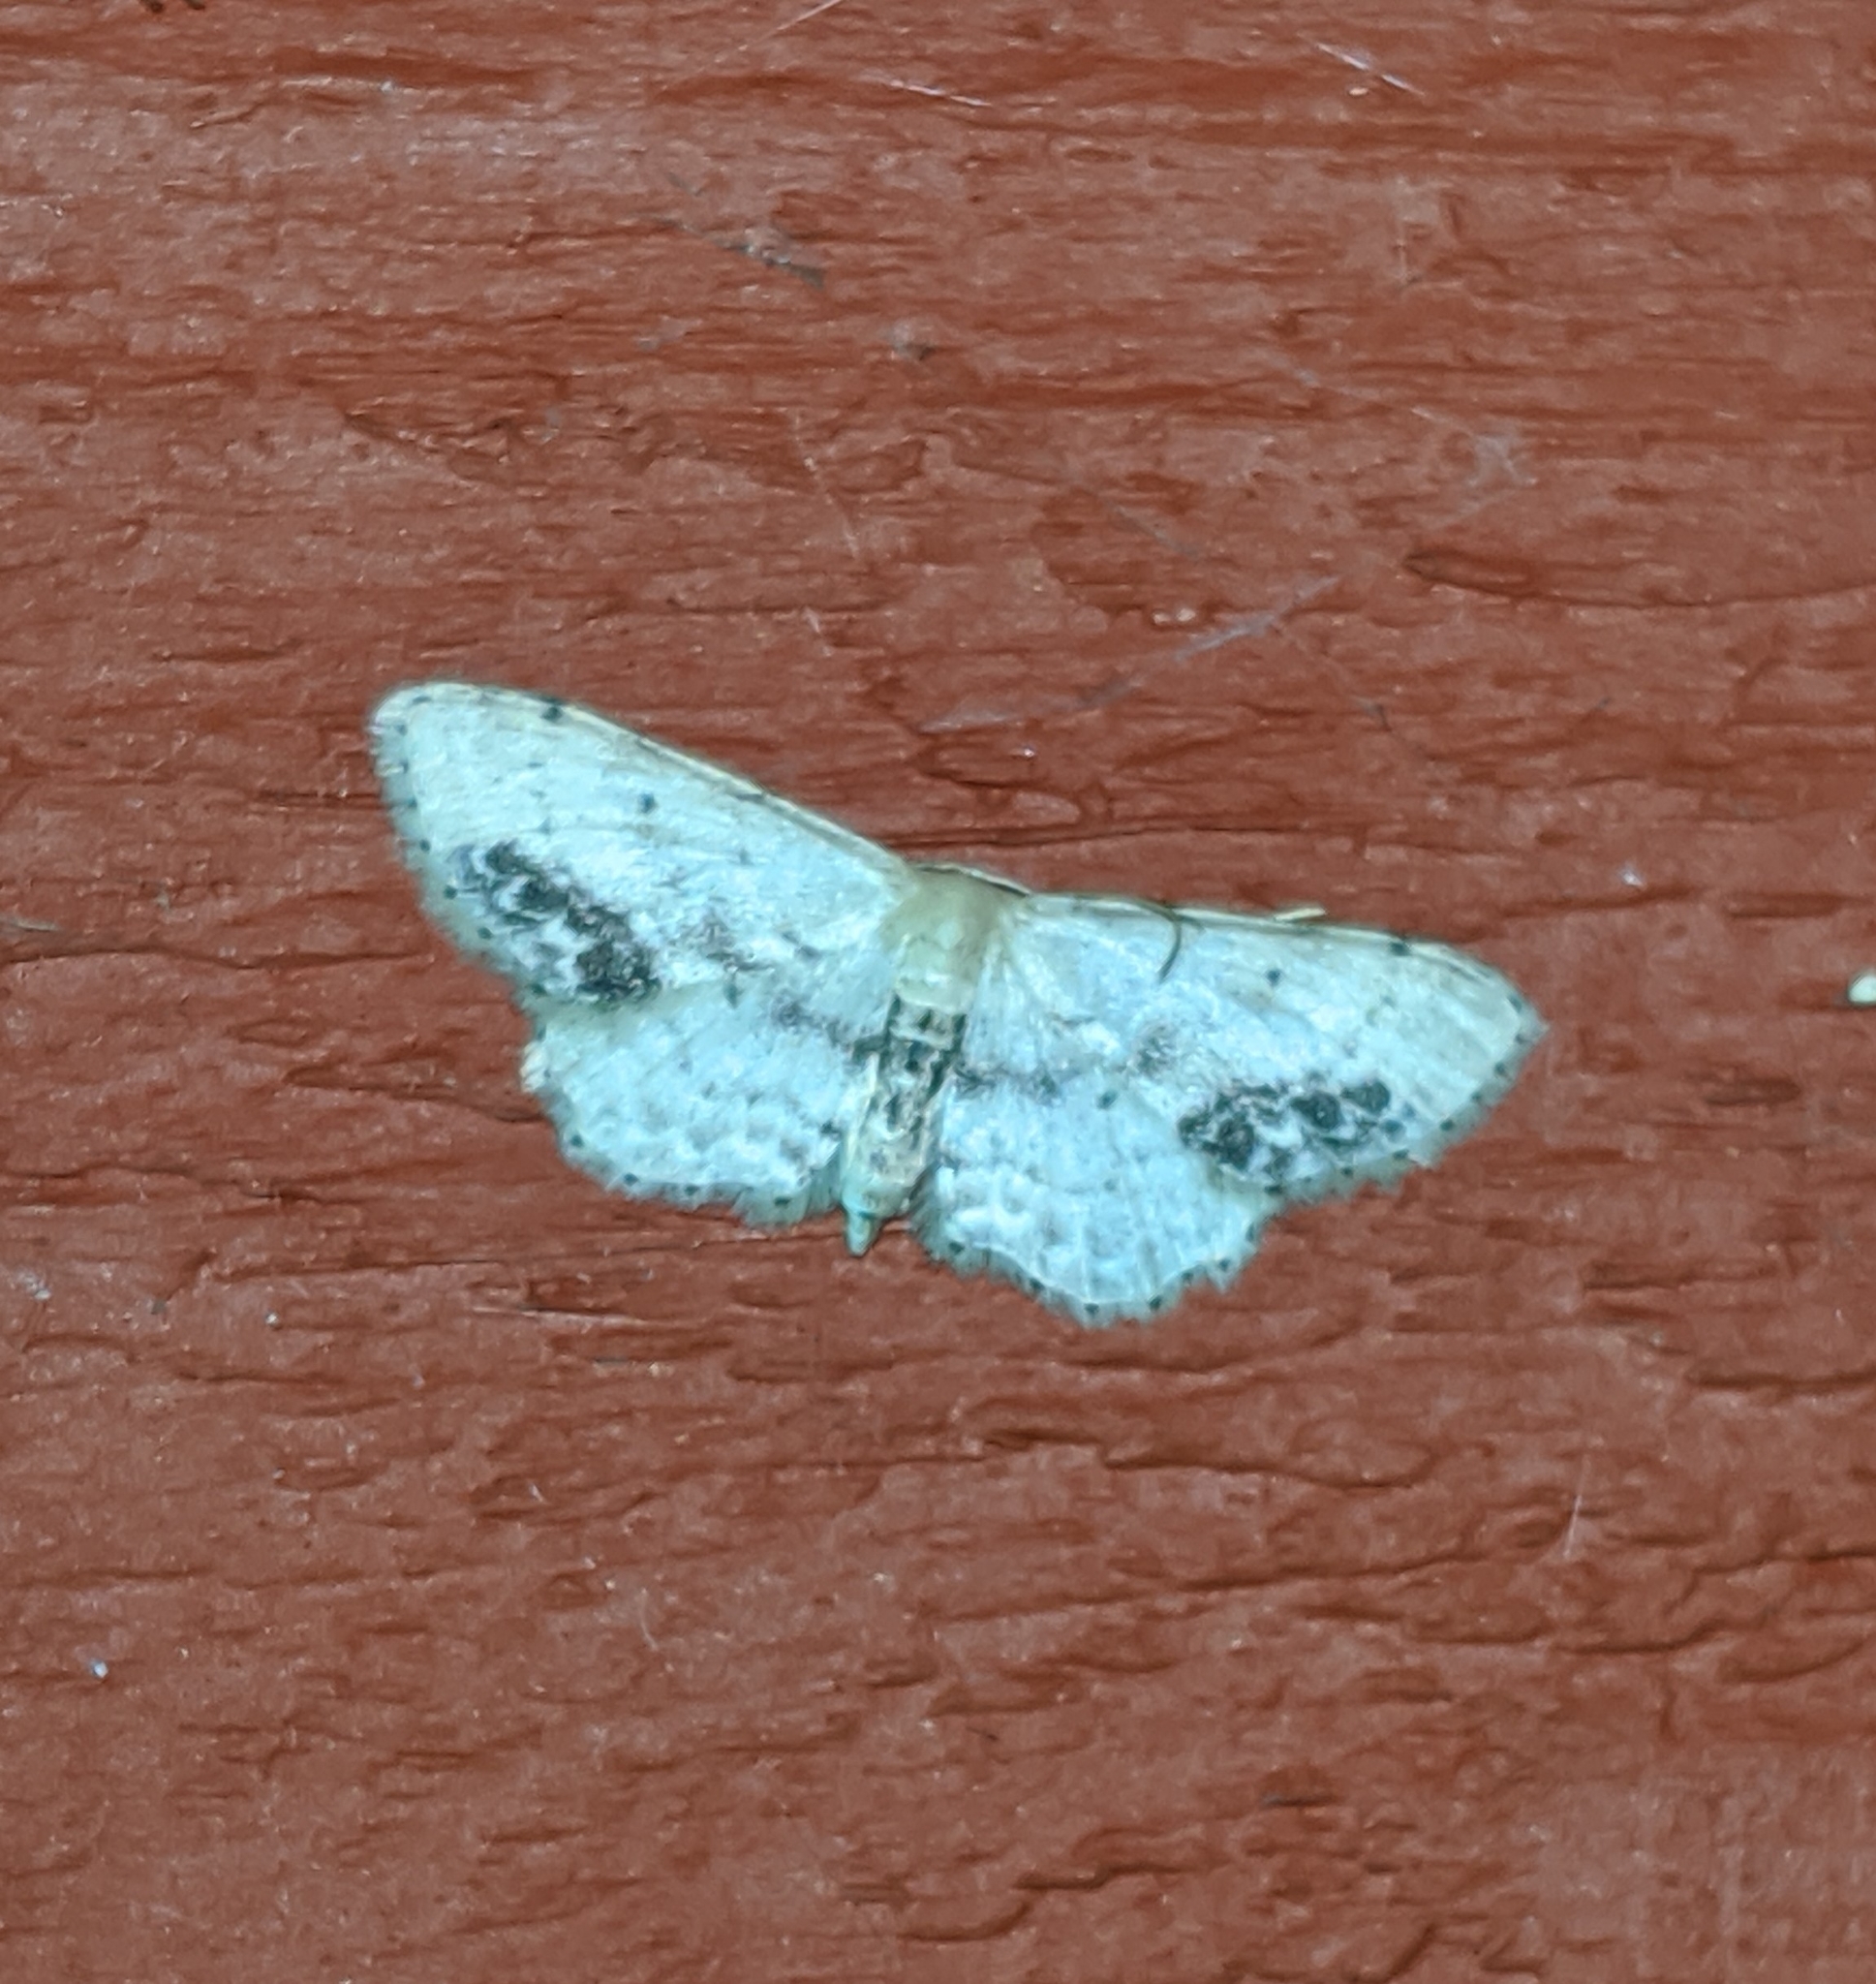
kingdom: Animalia
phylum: Arthropoda
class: Insecta
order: Lepidoptera
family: Geometridae
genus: Idaea
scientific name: Idaea dimidiata
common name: Single-dotted wave
